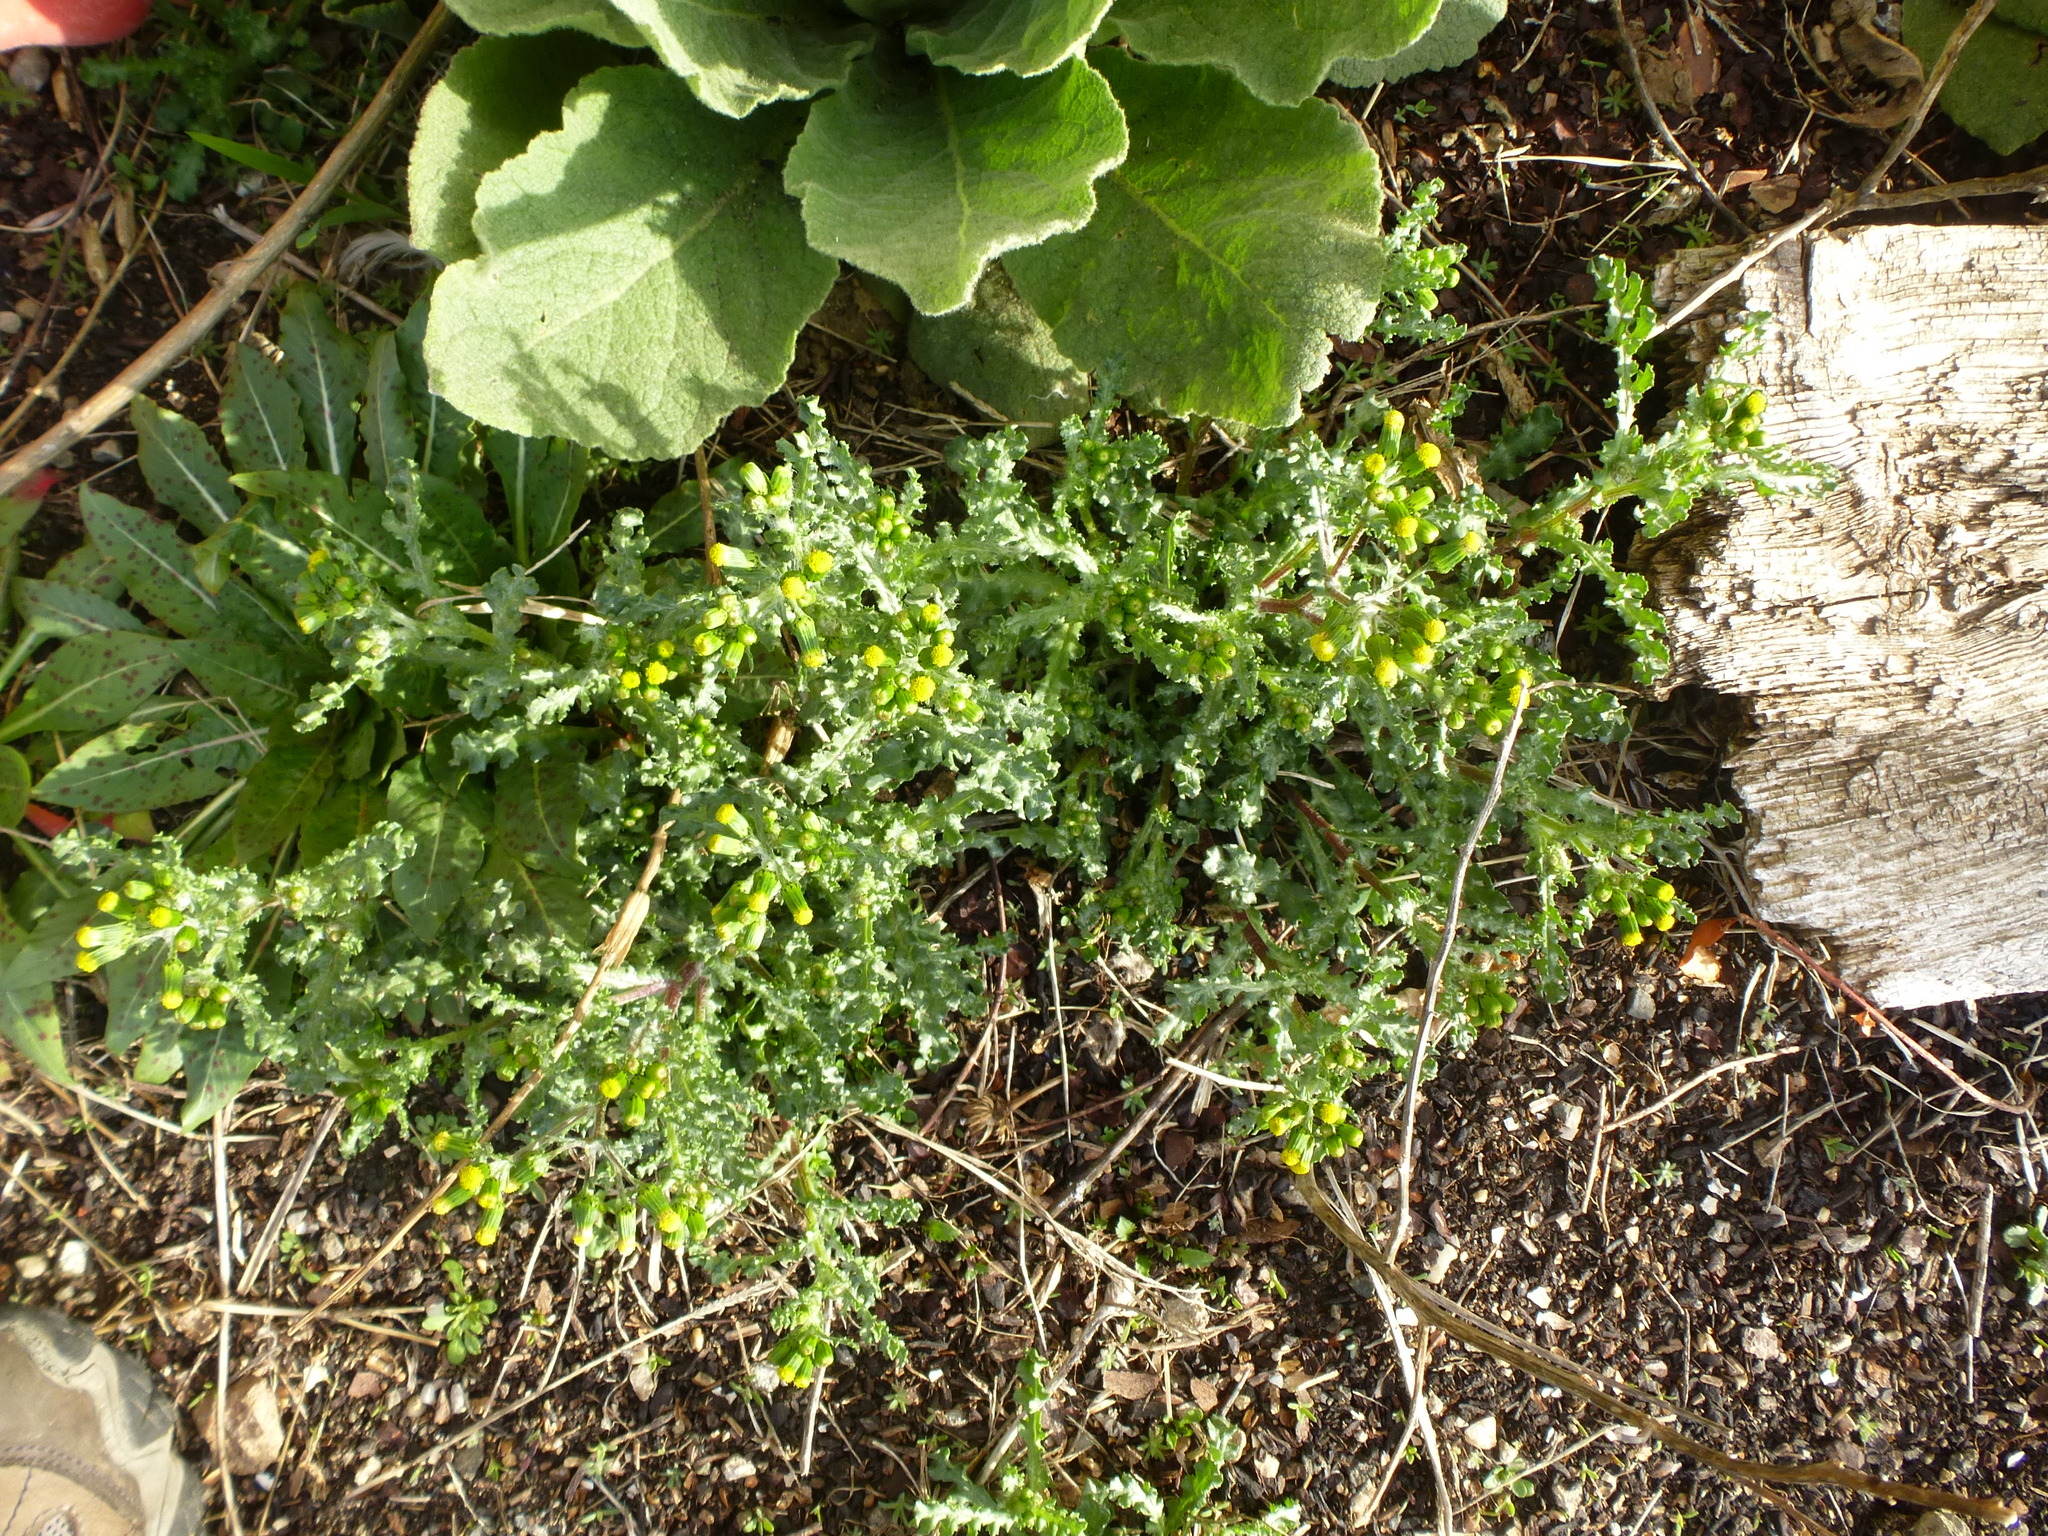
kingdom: Plantae
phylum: Tracheophyta
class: Magnoliopsida
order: Asterales
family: Asteraceae
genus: Senecio
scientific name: Senecio vulgaris
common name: Old-man-in-the-spring
